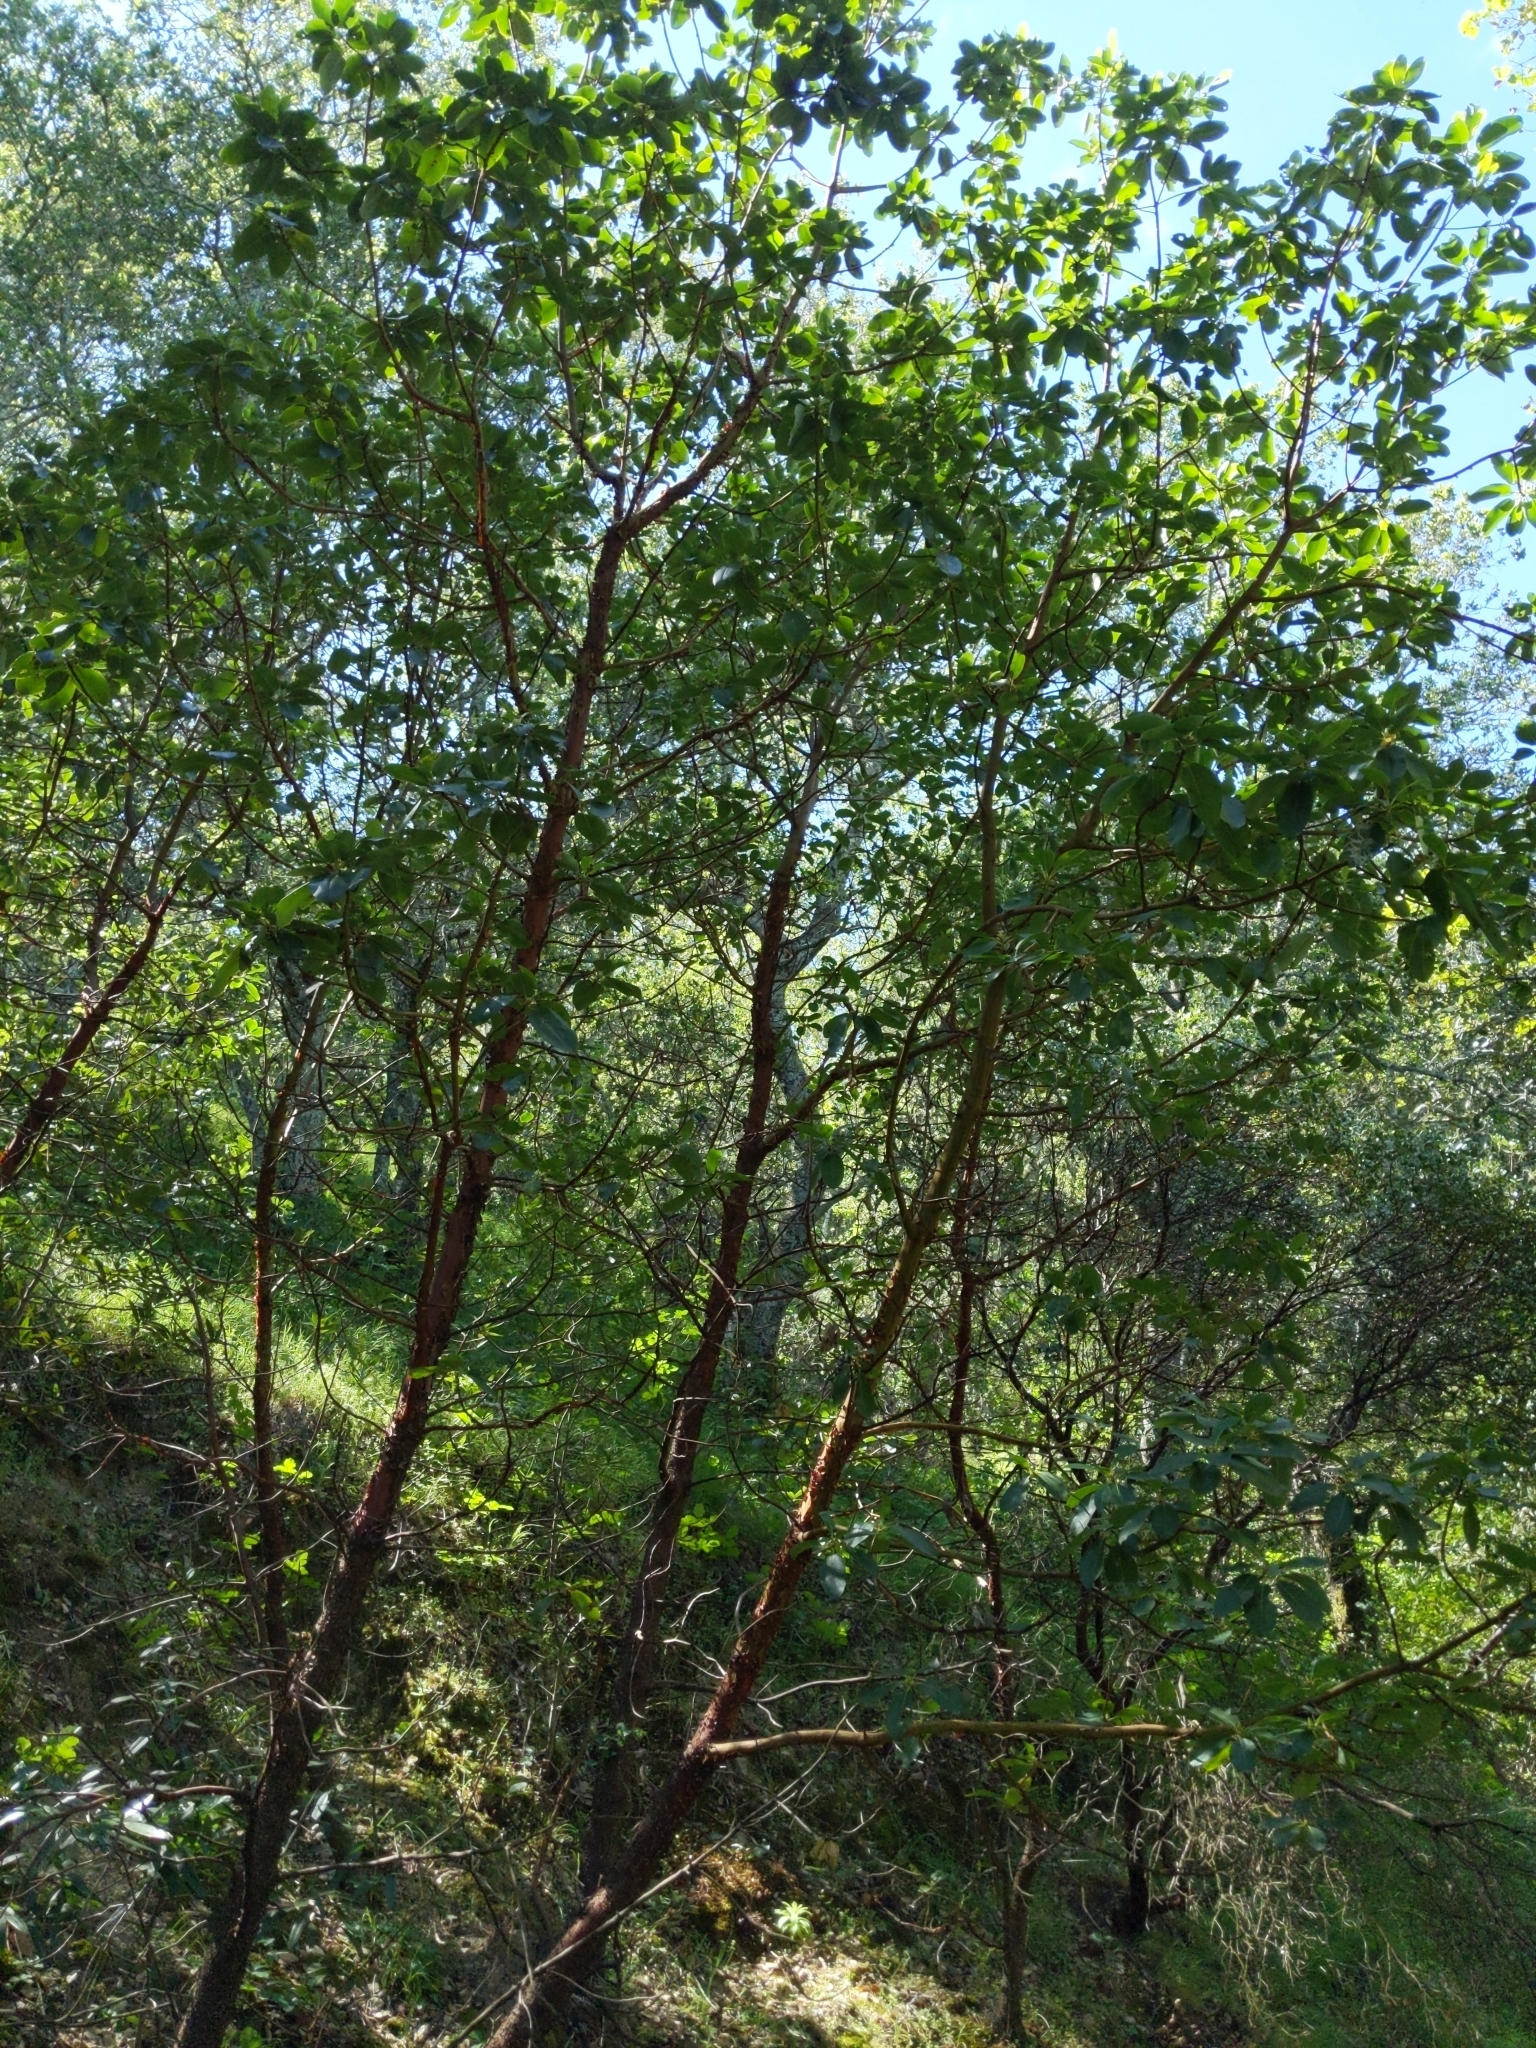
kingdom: Plantae
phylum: Tracheophyta
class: Magnoliopsida
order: Ericales
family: Ericaceae
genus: Arbutus
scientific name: Arbutus menziesii
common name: Pacific madrone
